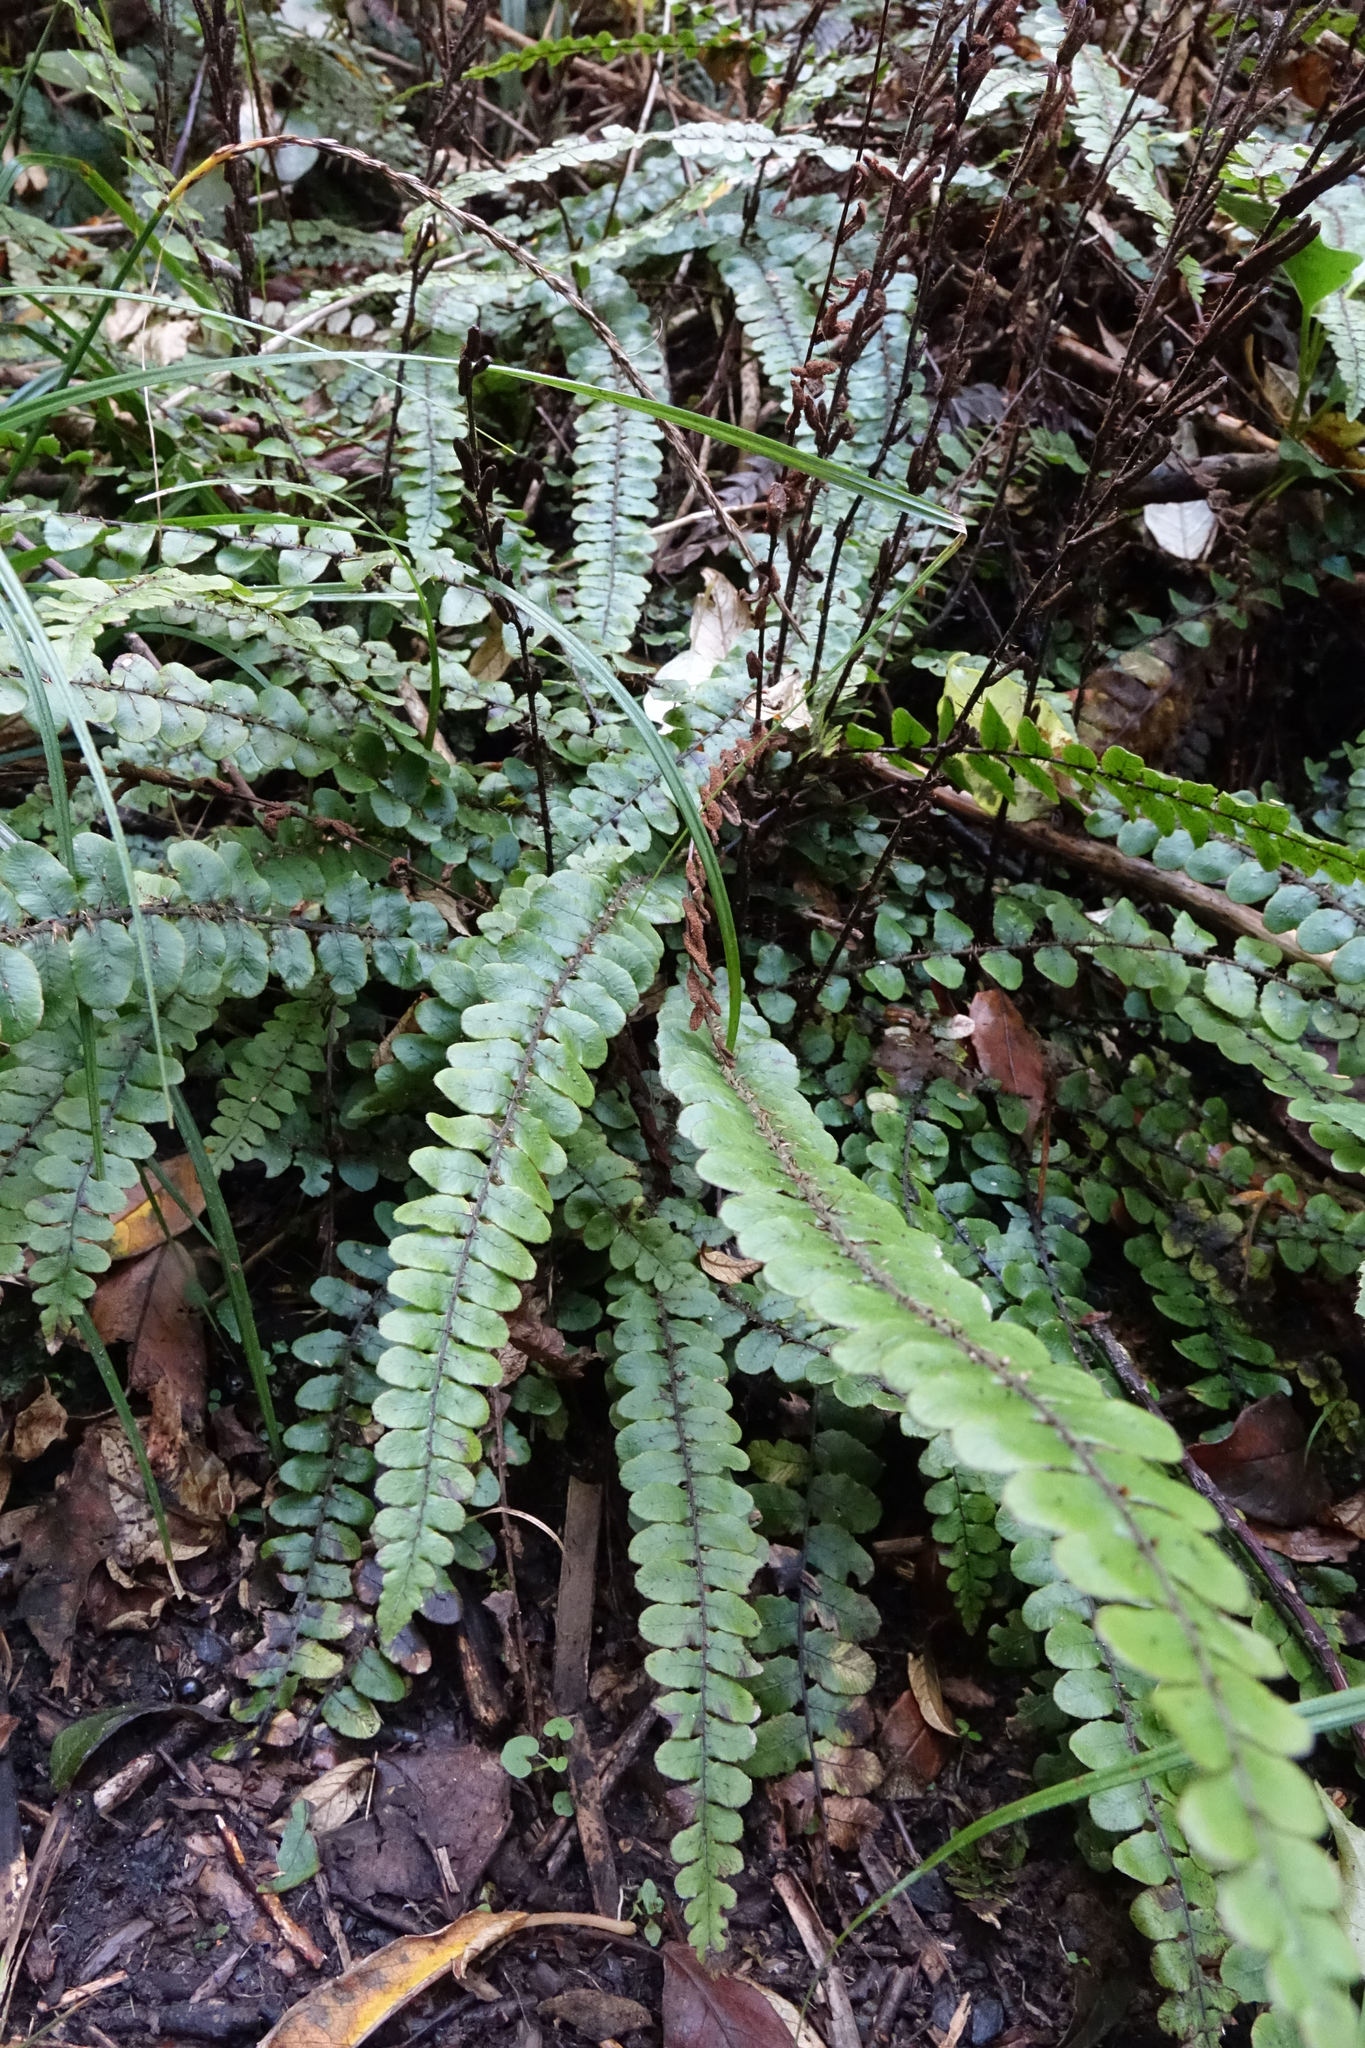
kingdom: Plantae
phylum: Tracheophyta
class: Polypodiopsida
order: Polypodiales
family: Blechnaceae
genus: Cranfillia
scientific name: Cranfillia fluviatilis
